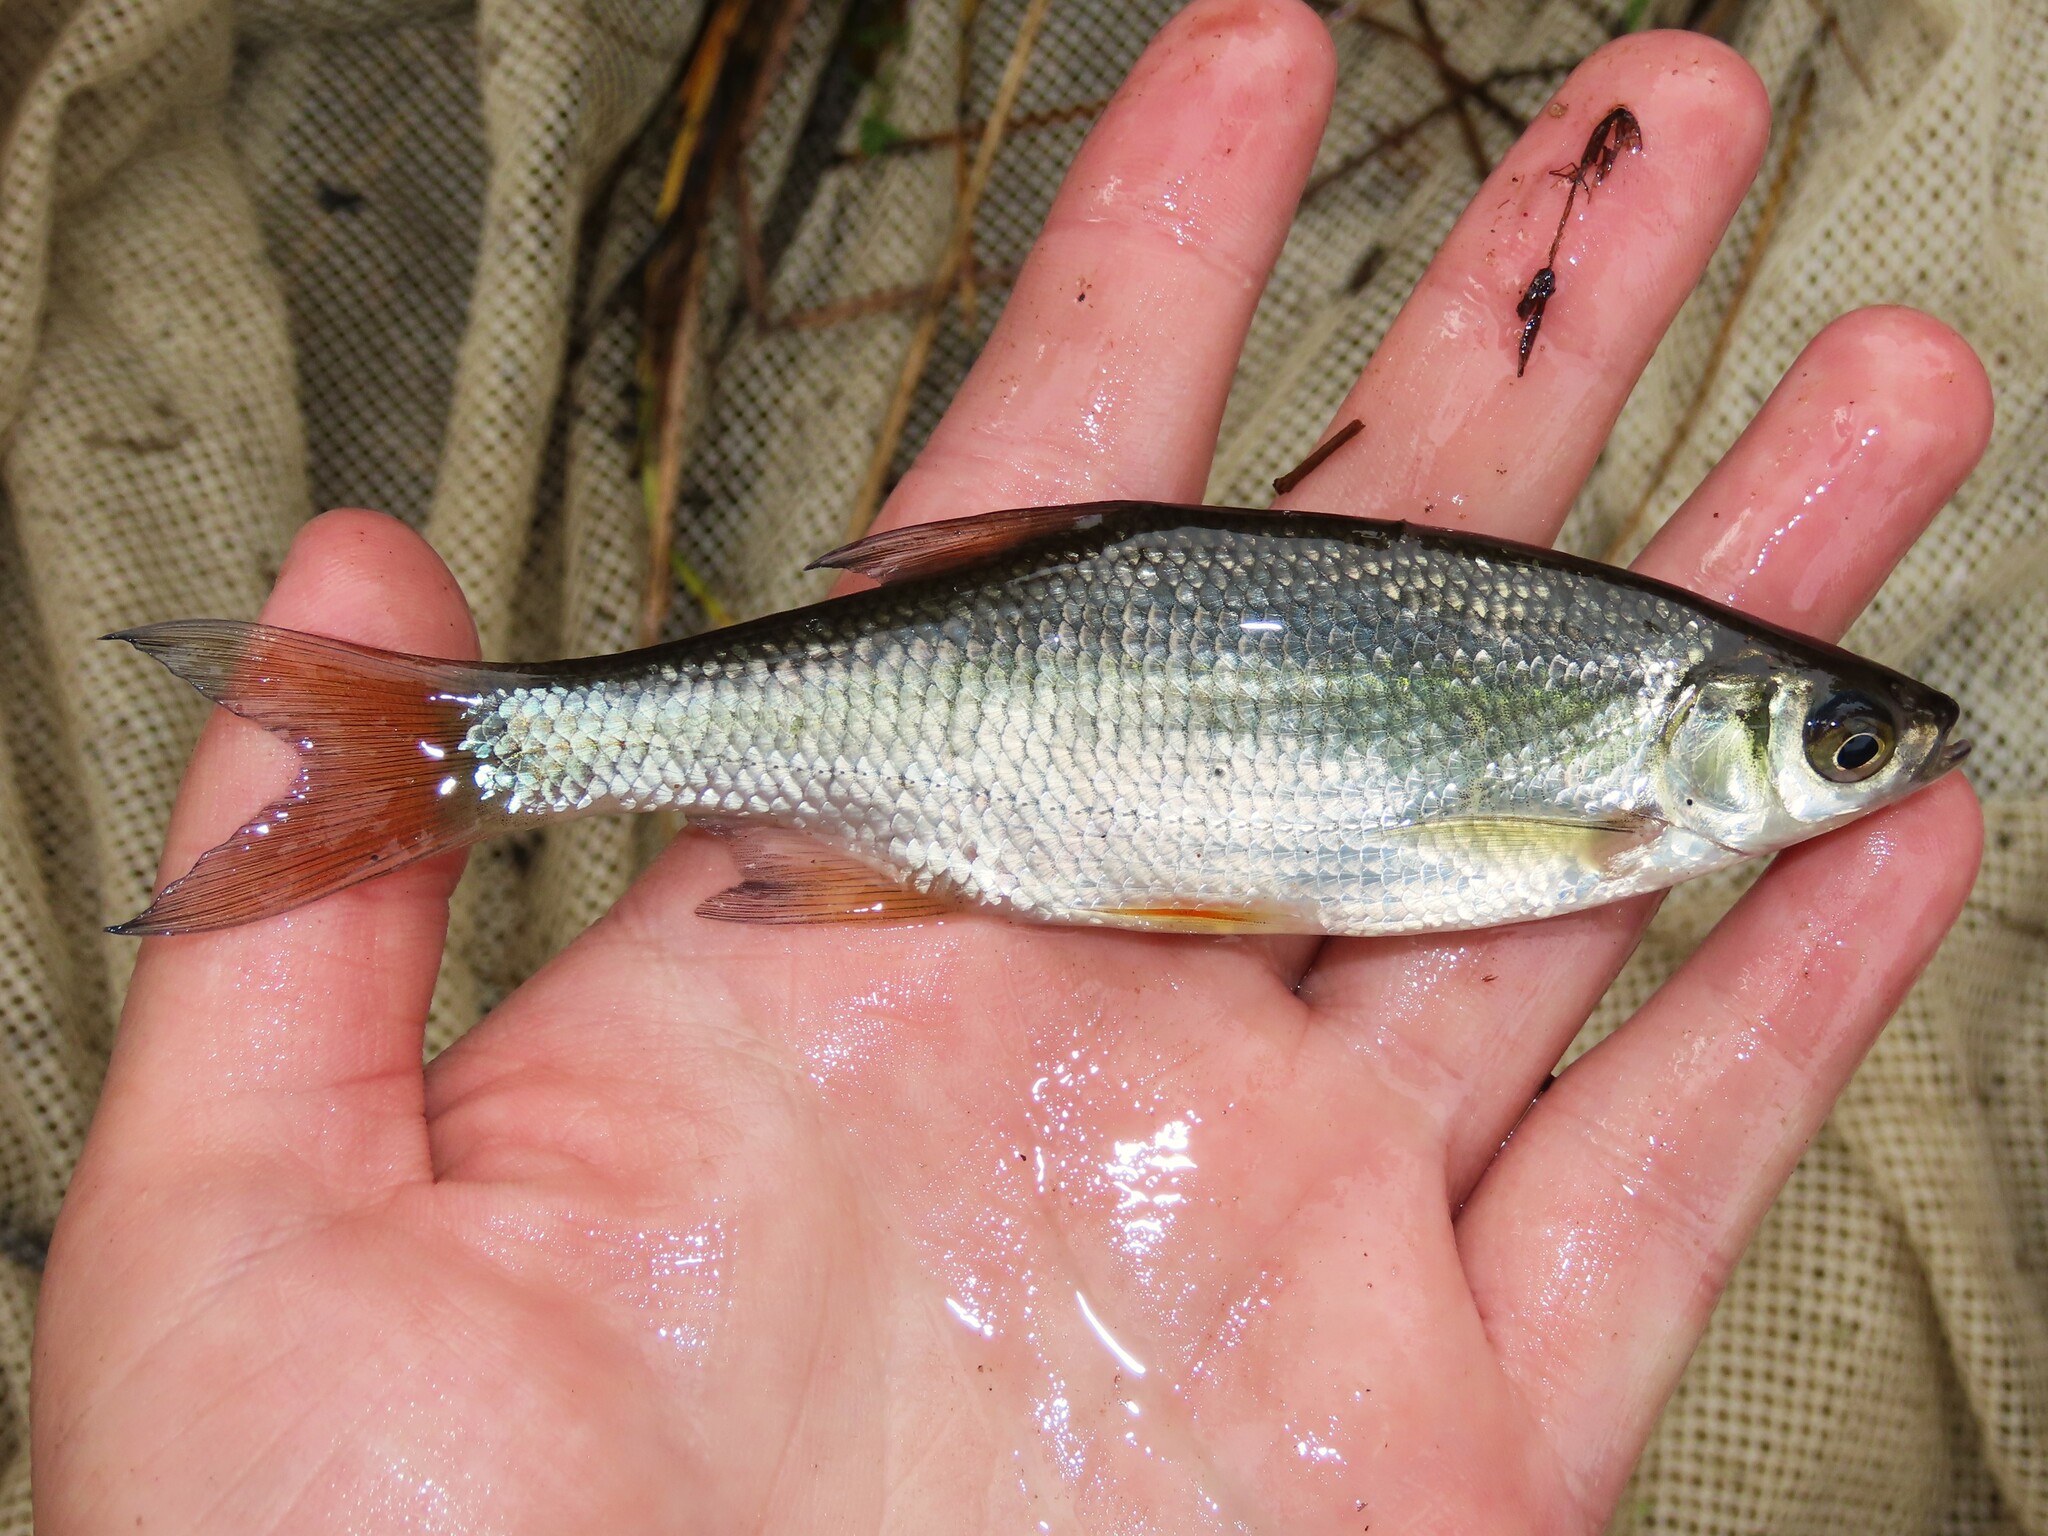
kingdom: Animalia
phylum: Chordata
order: Cypriniformes
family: Cyprinidae
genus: Notemigonus
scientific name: Notemigonus crysoleucas
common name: Golden shiner
